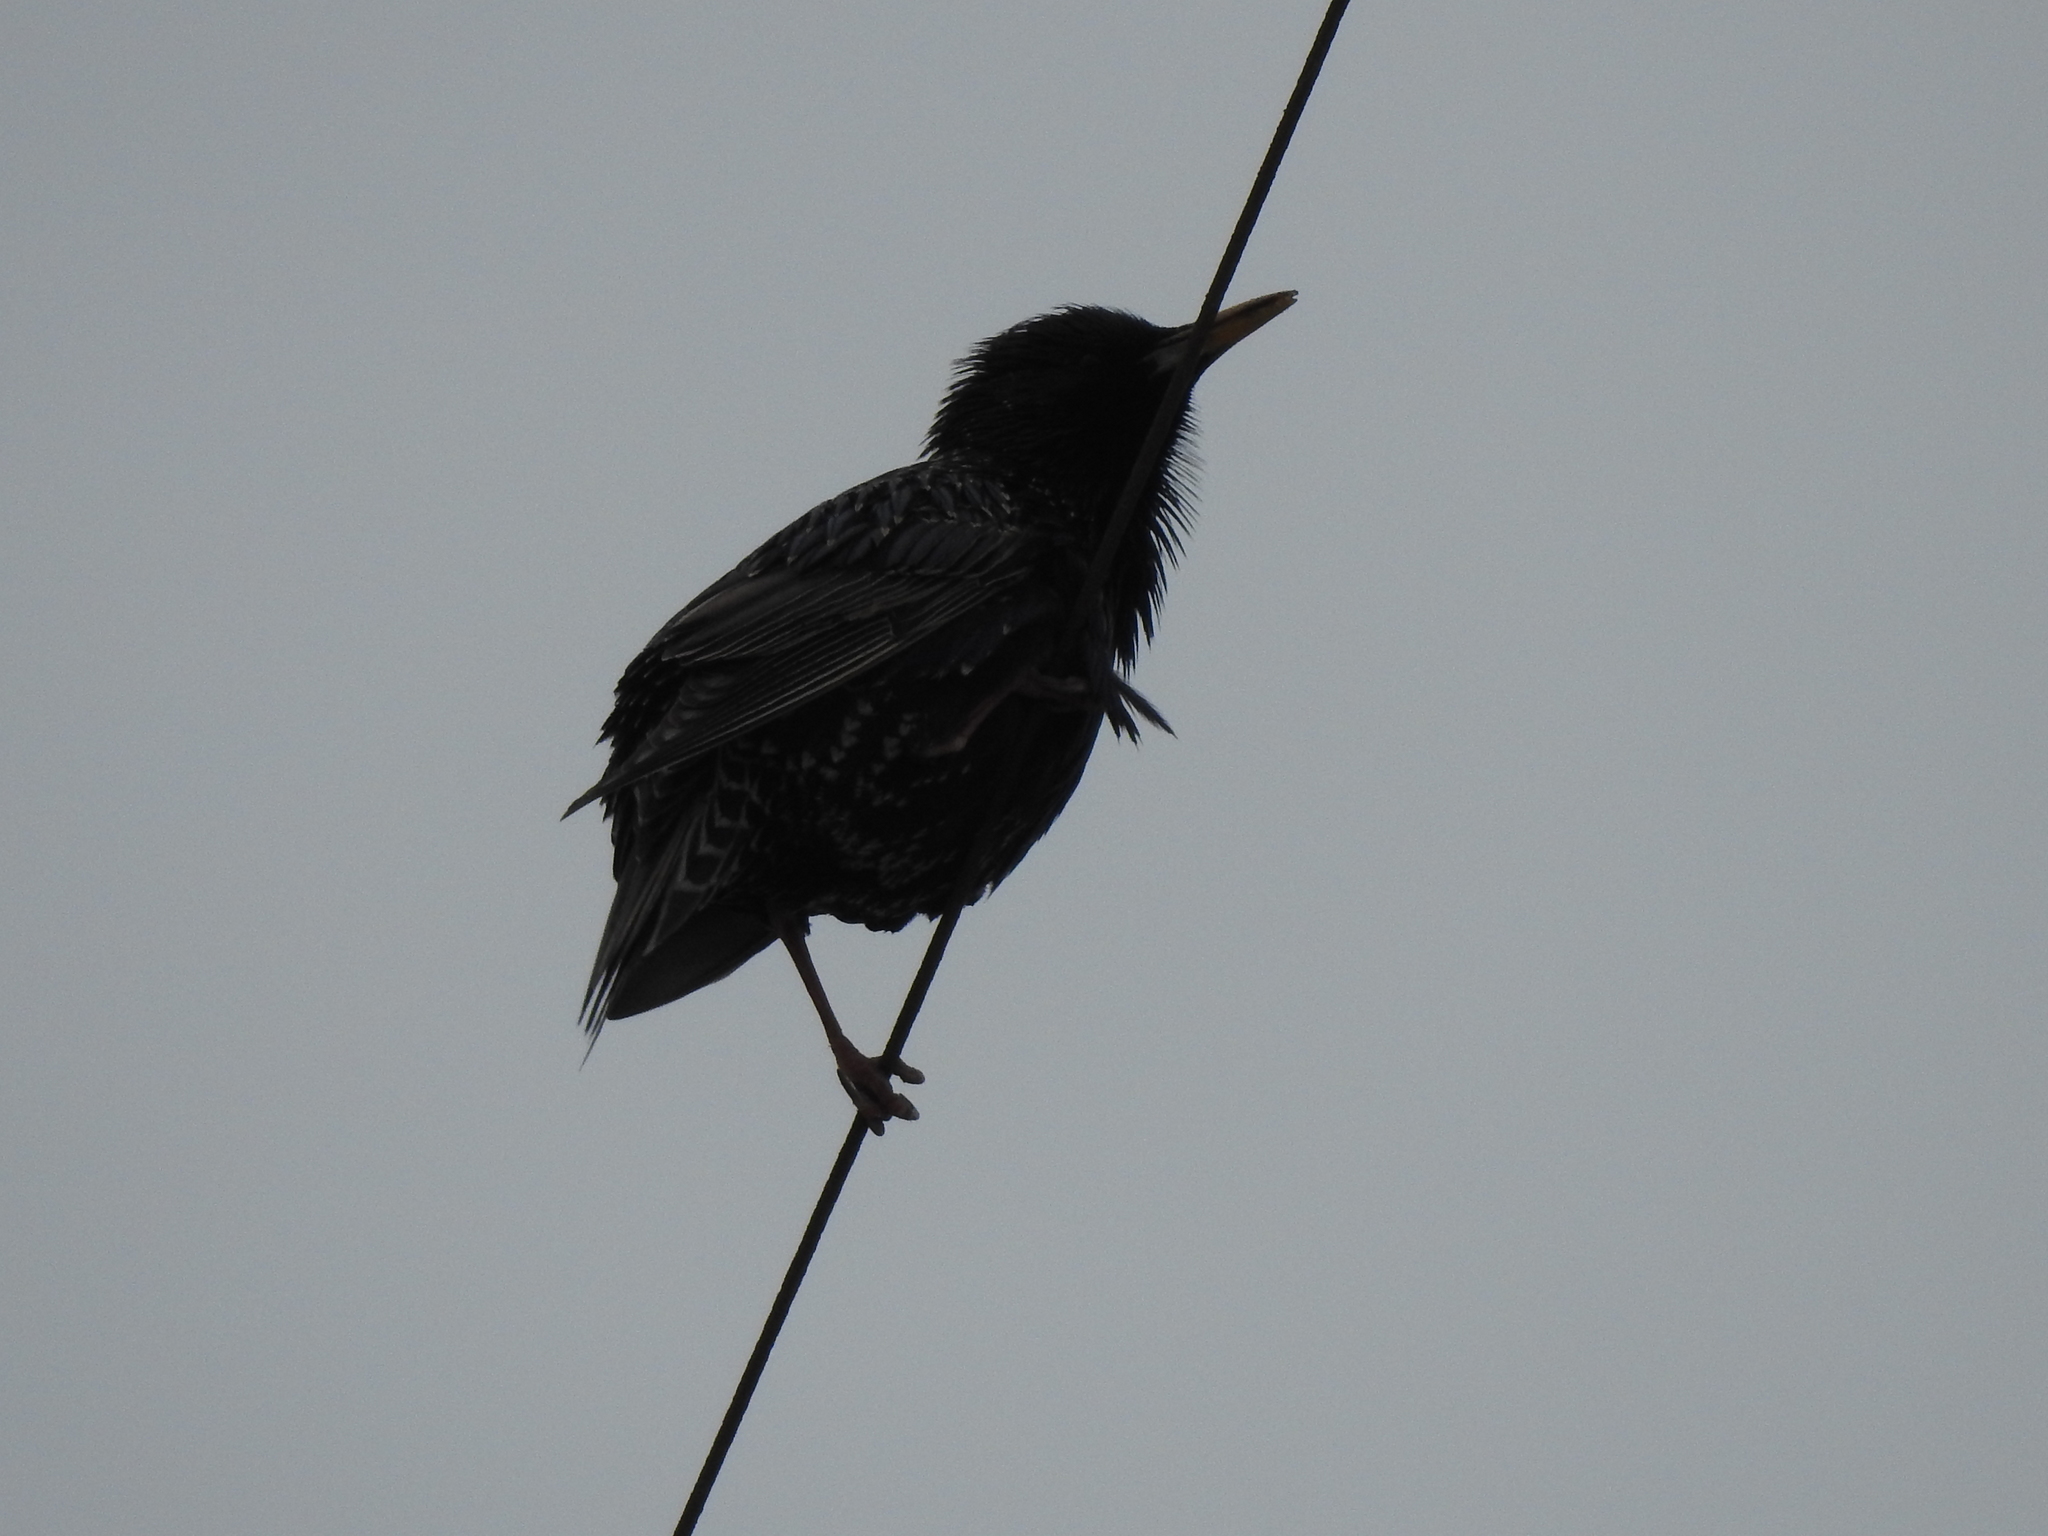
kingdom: Animalia
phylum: Chordata
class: Aves
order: Passeriformes
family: Sturnidae
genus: Sturnus
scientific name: Sturnus vulgaris
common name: Common starling
